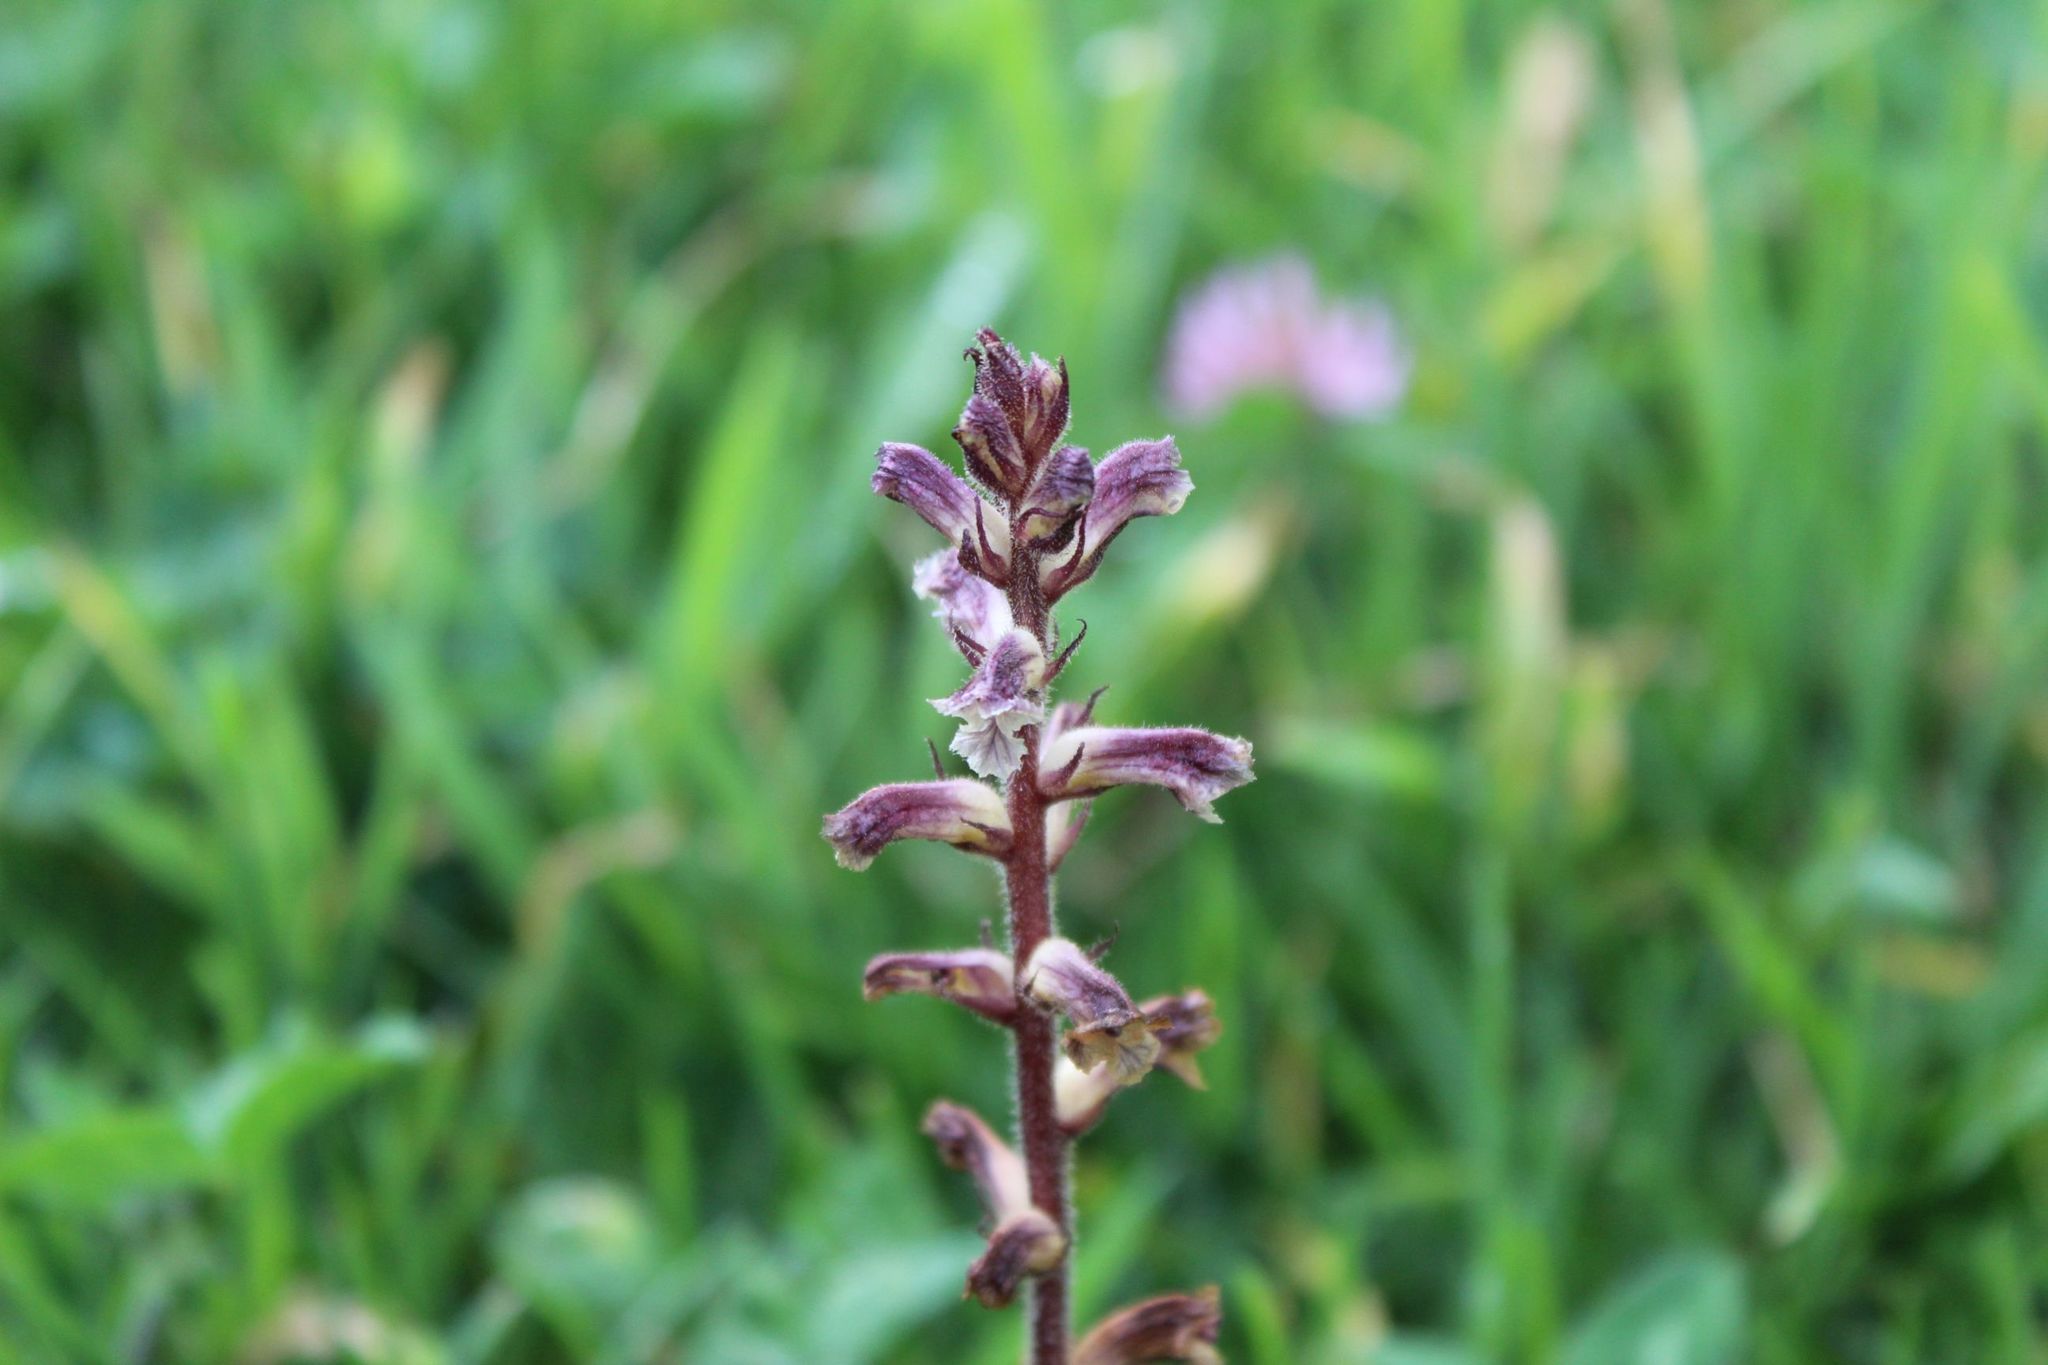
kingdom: Plantae
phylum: Tracheophyta
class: Magnoliopsida
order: Lamiales
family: Orobanchaceae
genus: Orobanche
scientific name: Orobanche minor
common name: Common broomrape
